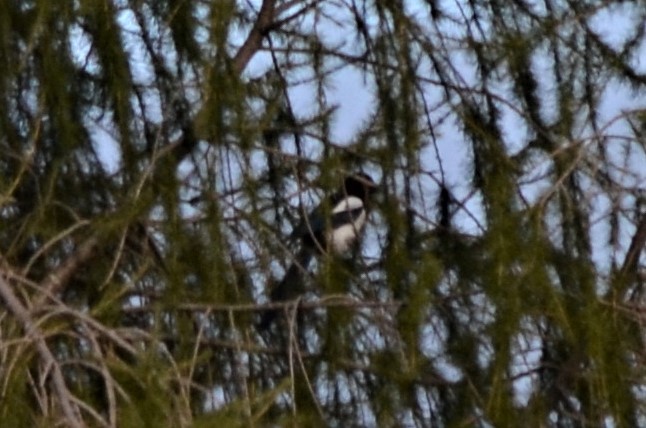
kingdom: Animalia
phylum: Chordata
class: Aves
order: Passeriformes
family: Corvidae
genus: Pica
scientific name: Pica pica
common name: Eurasian magpie
